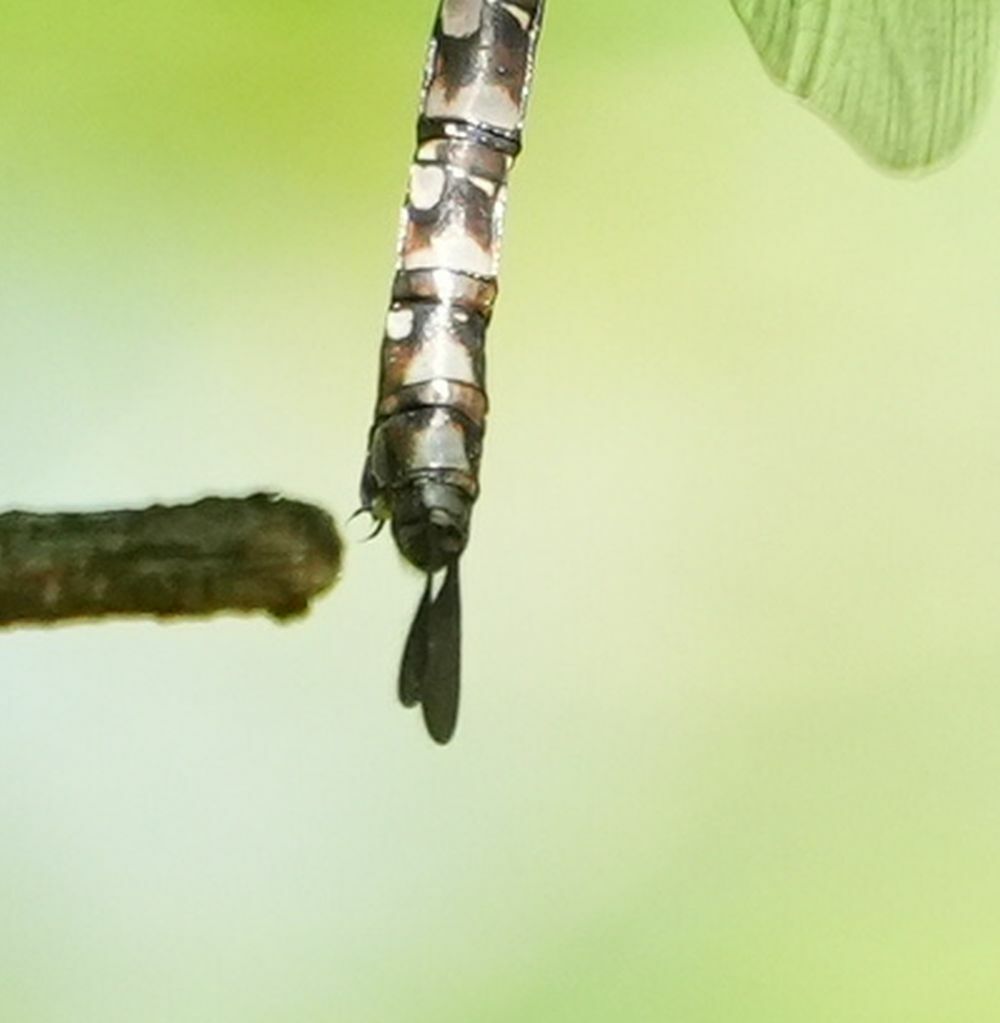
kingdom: Animalia
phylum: Arthropoda
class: Insecta
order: Odonata
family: Aeshnidae
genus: Aeshna
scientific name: Aeshna canadensis
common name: Canada darner
